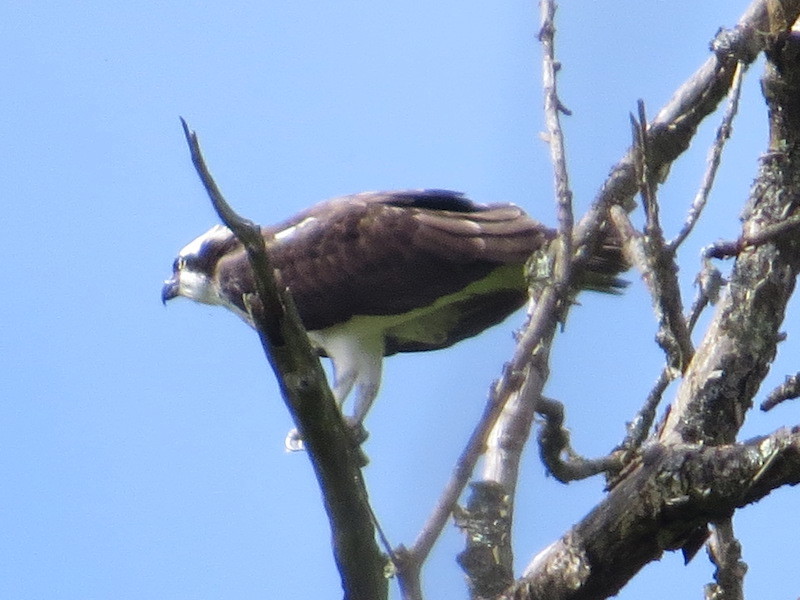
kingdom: Animalia
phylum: Chordata
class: Aves
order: Accipitriformes
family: Pandionidae
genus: Pandion
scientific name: Pandion haliaetus
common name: Osprey
